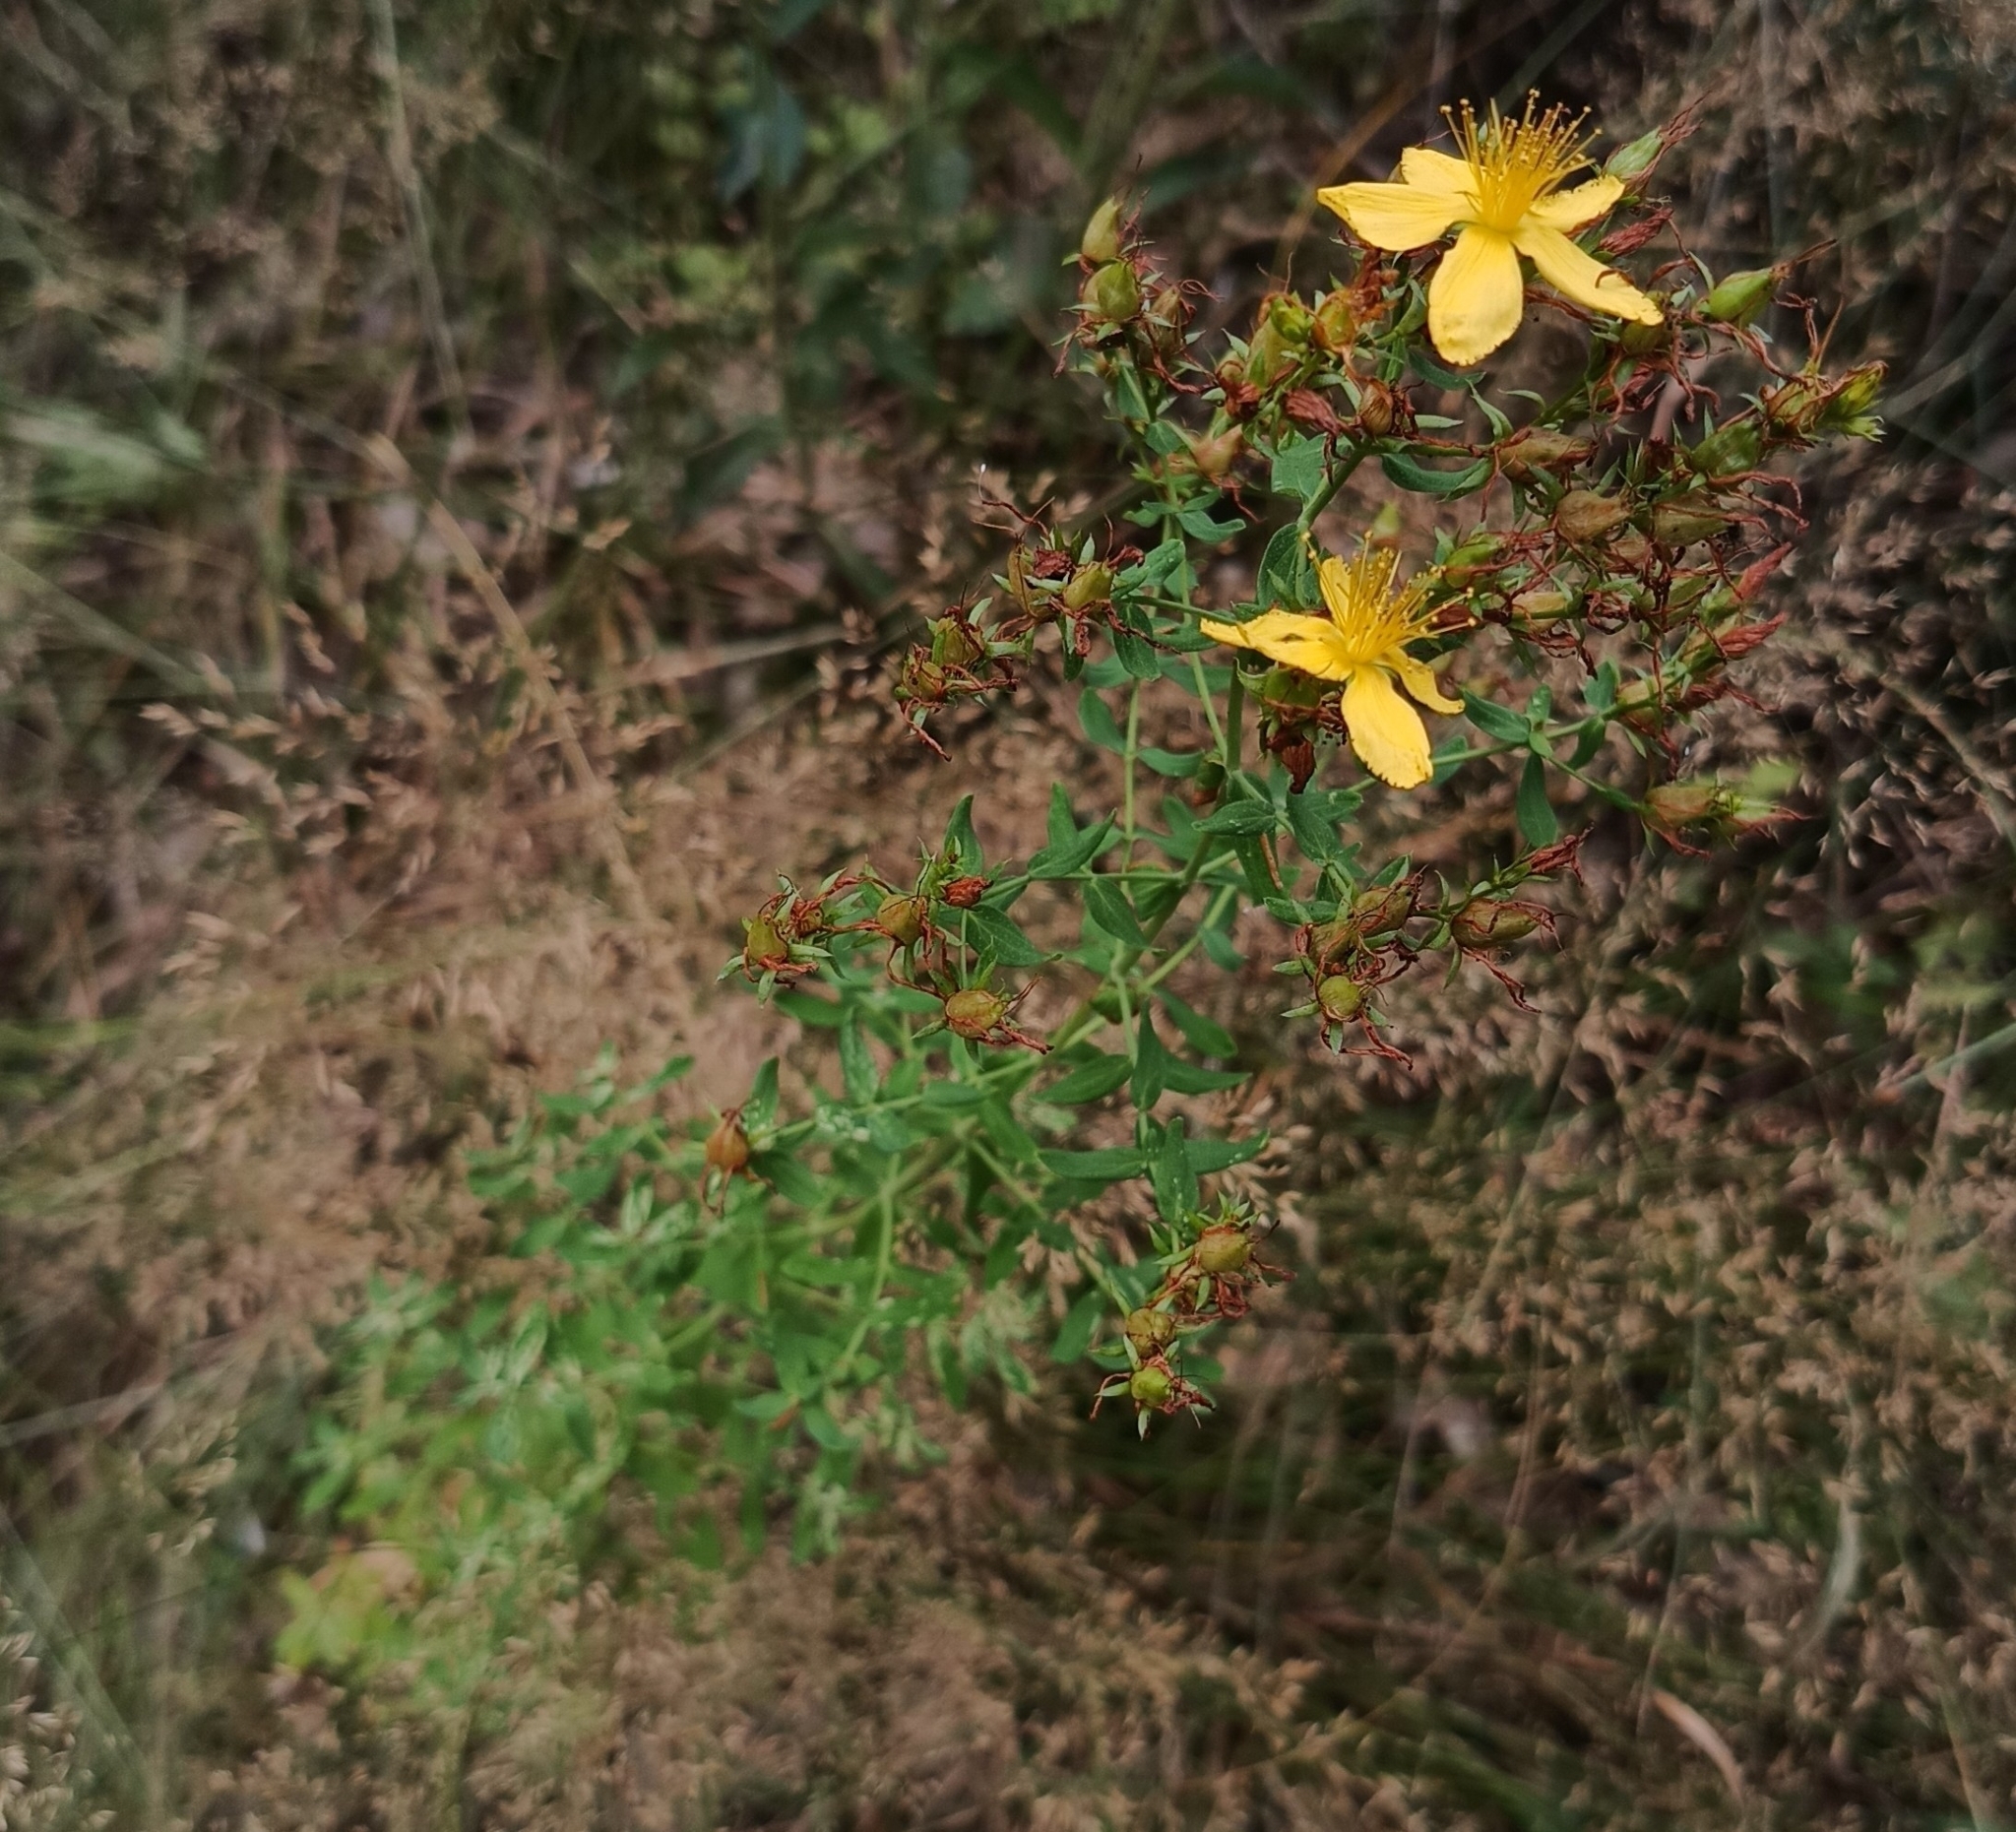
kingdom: Plantae
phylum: Tracheophyta
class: Magnoliopsida
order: Malpighiales
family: Hypericaceae
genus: Hypericum
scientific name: Hypericum perforatum
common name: Common st. johnswort
